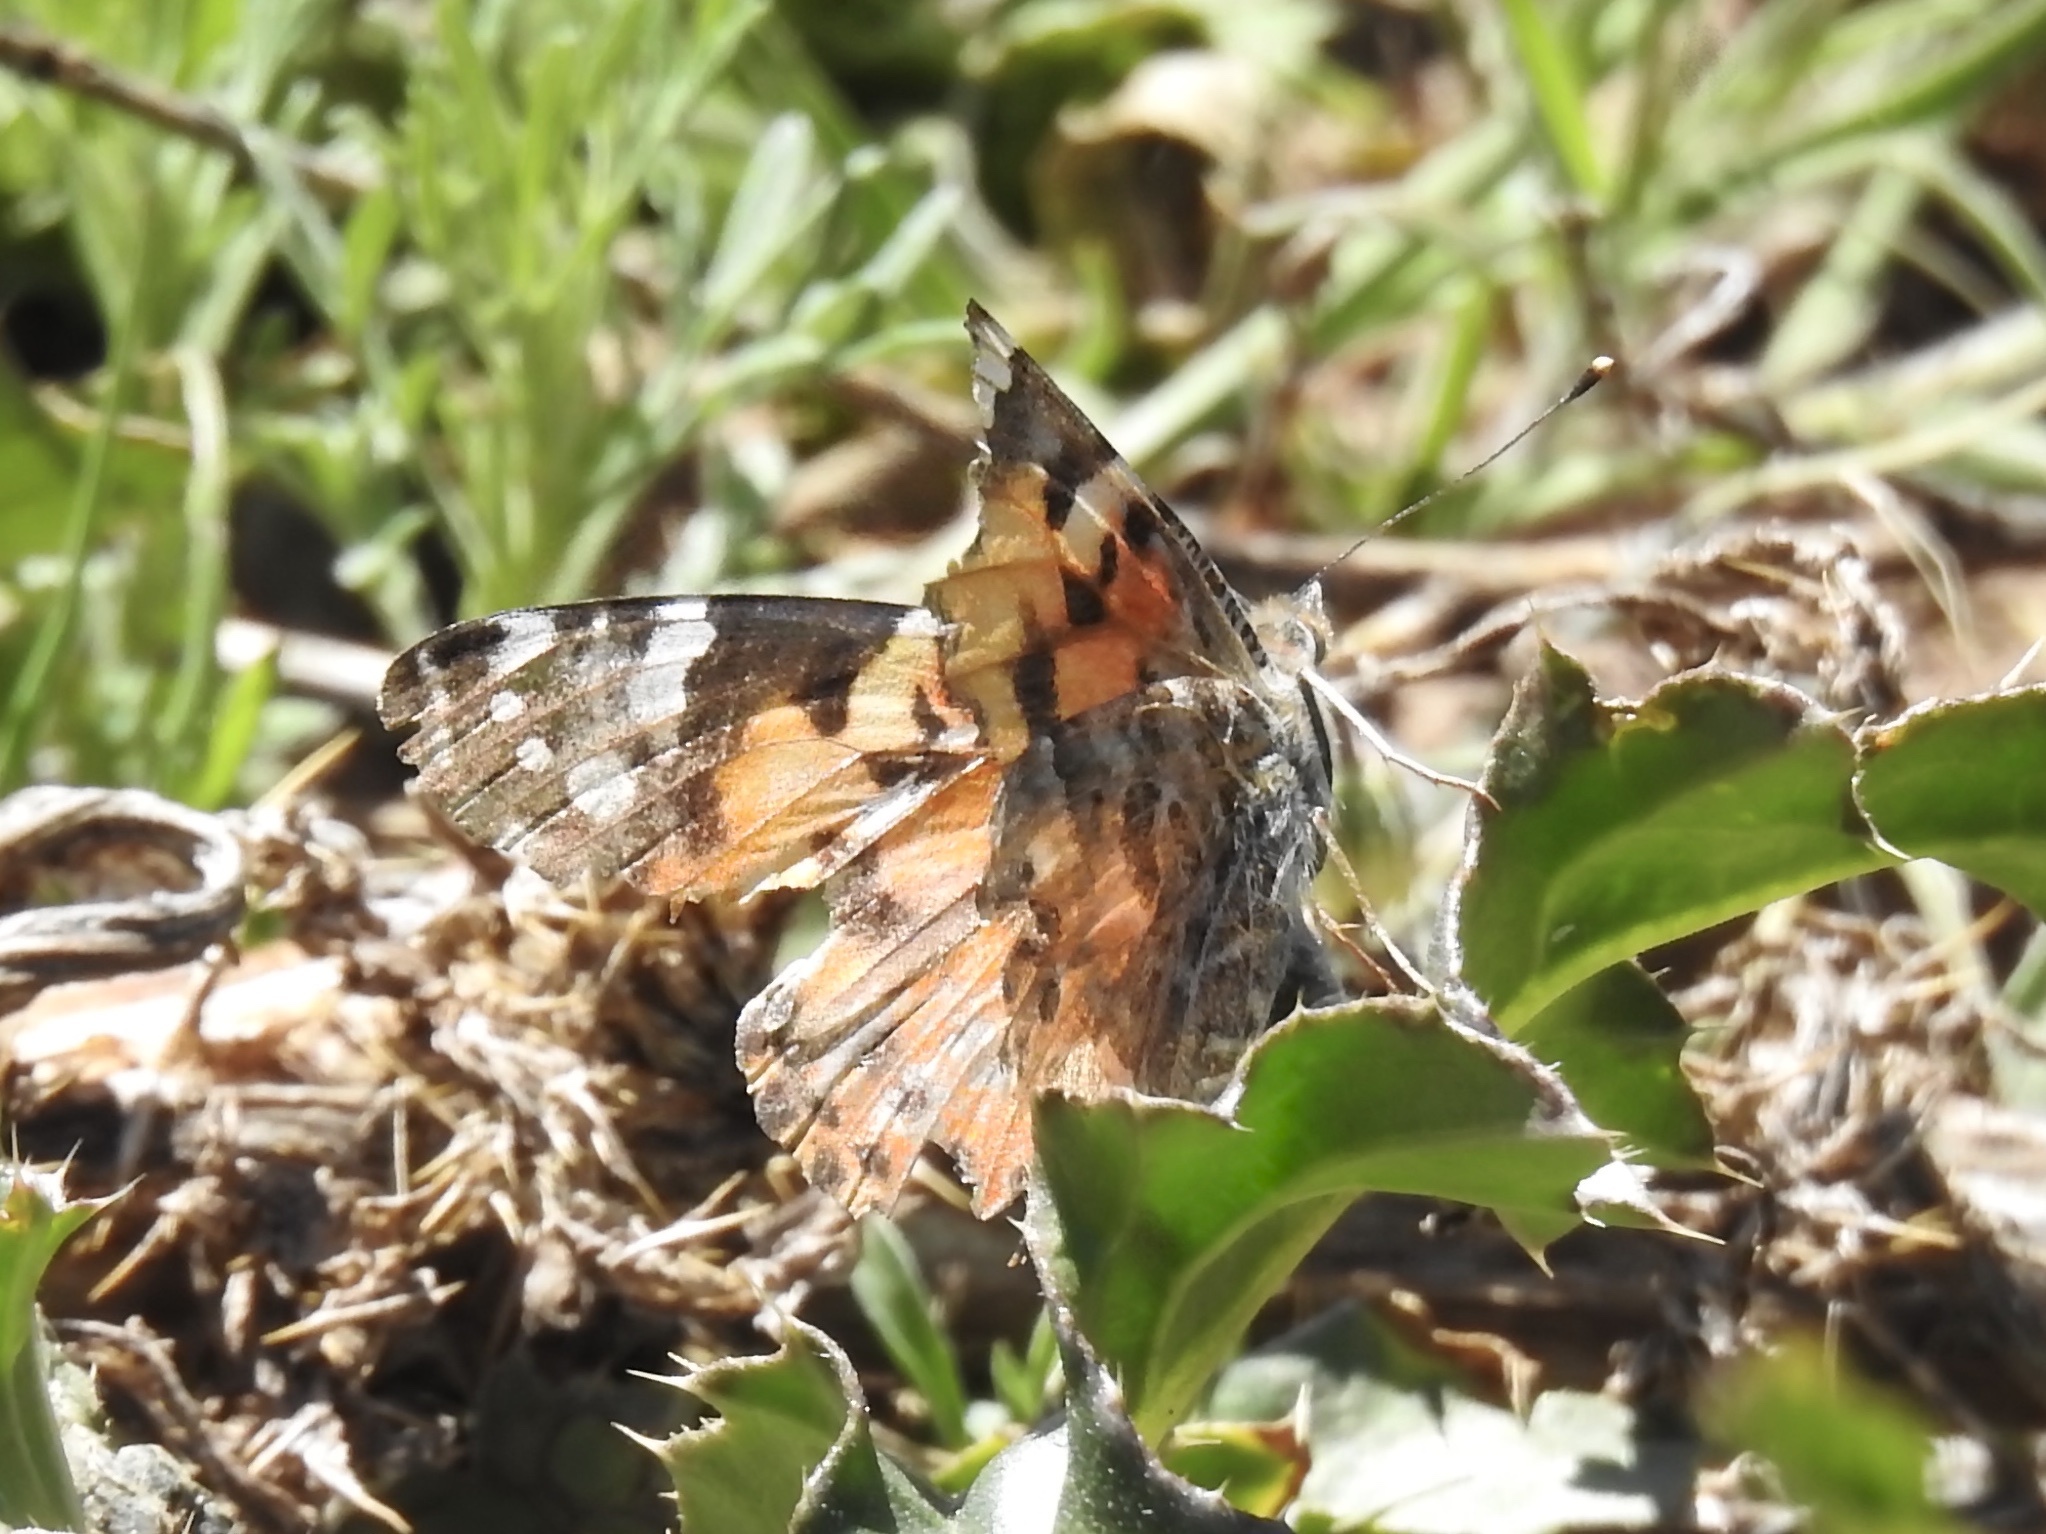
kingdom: Animalia
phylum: Arthropoda
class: Insecta
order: Lepidoptera
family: Nymphalidae
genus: Vanessa
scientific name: Vanessa cardui
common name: Painted lady
